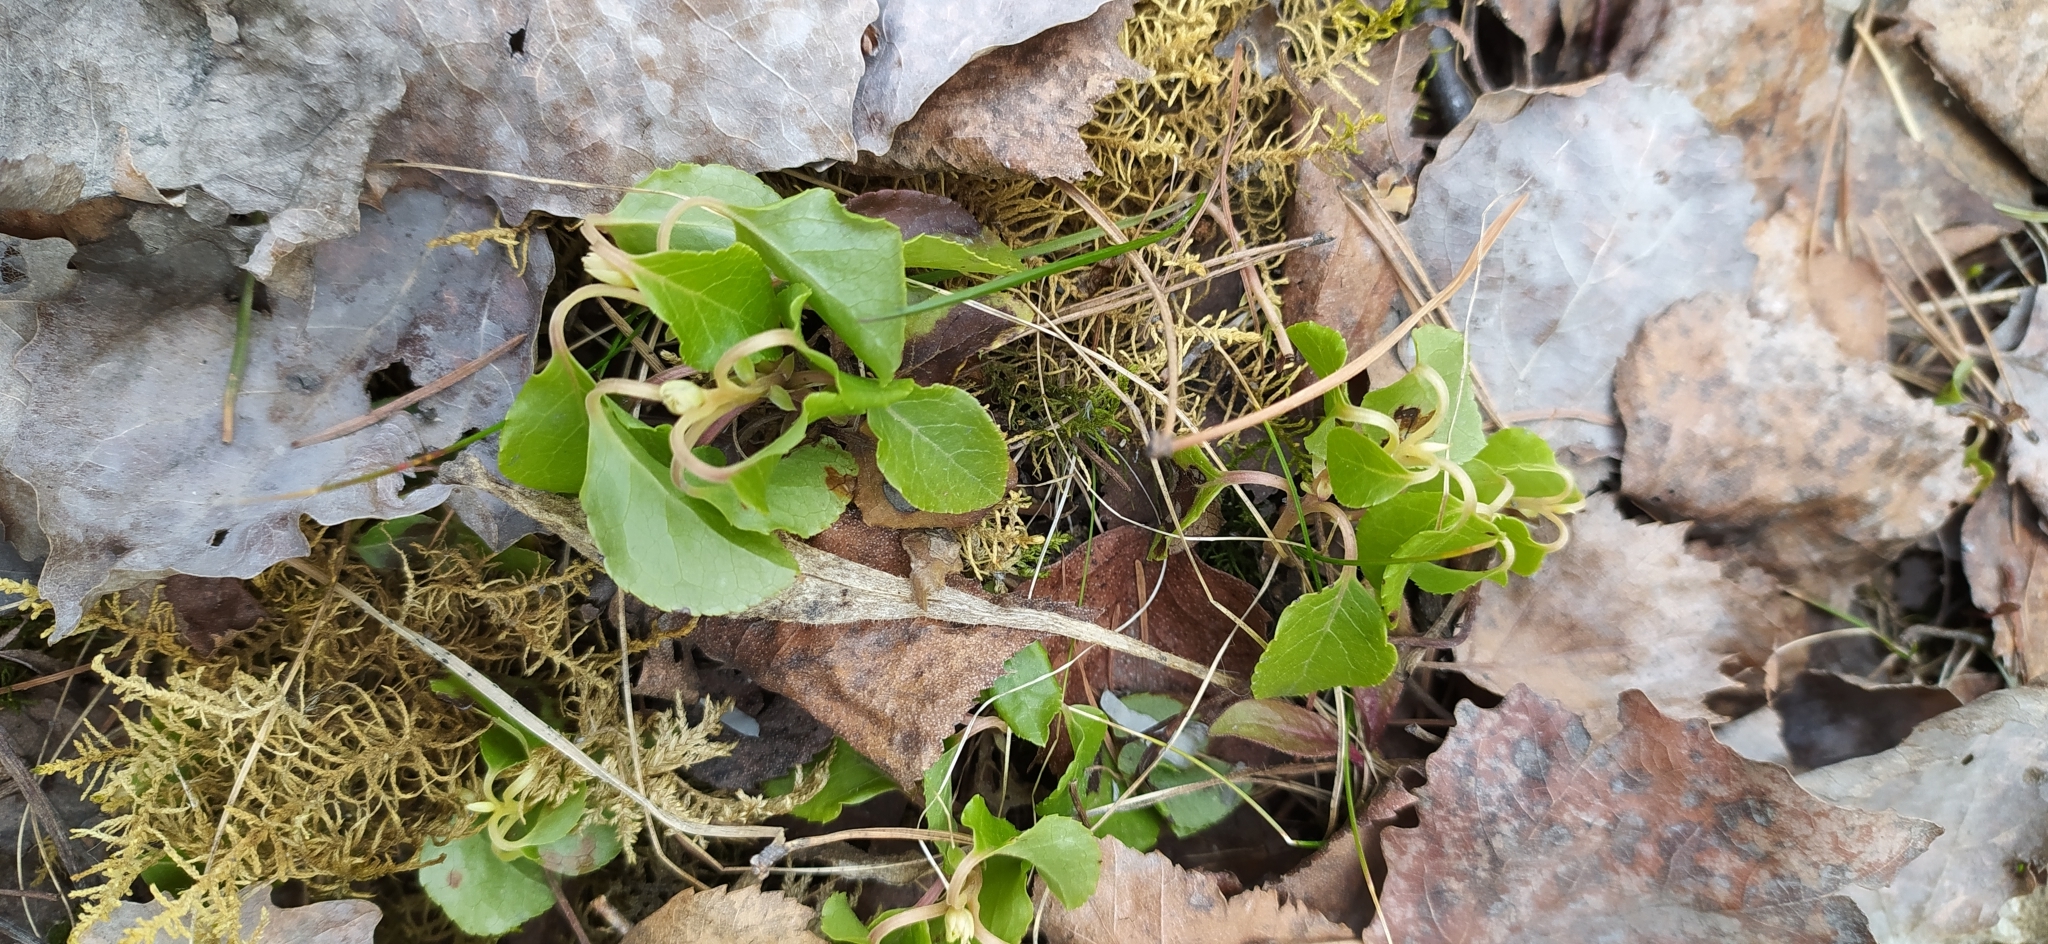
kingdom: Plantae
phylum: Tracheophyta
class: Magnoliopsida
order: Ericales
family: Ericaceae
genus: Orthilia
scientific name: Orthilia secunda
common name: One-sided orthilia
